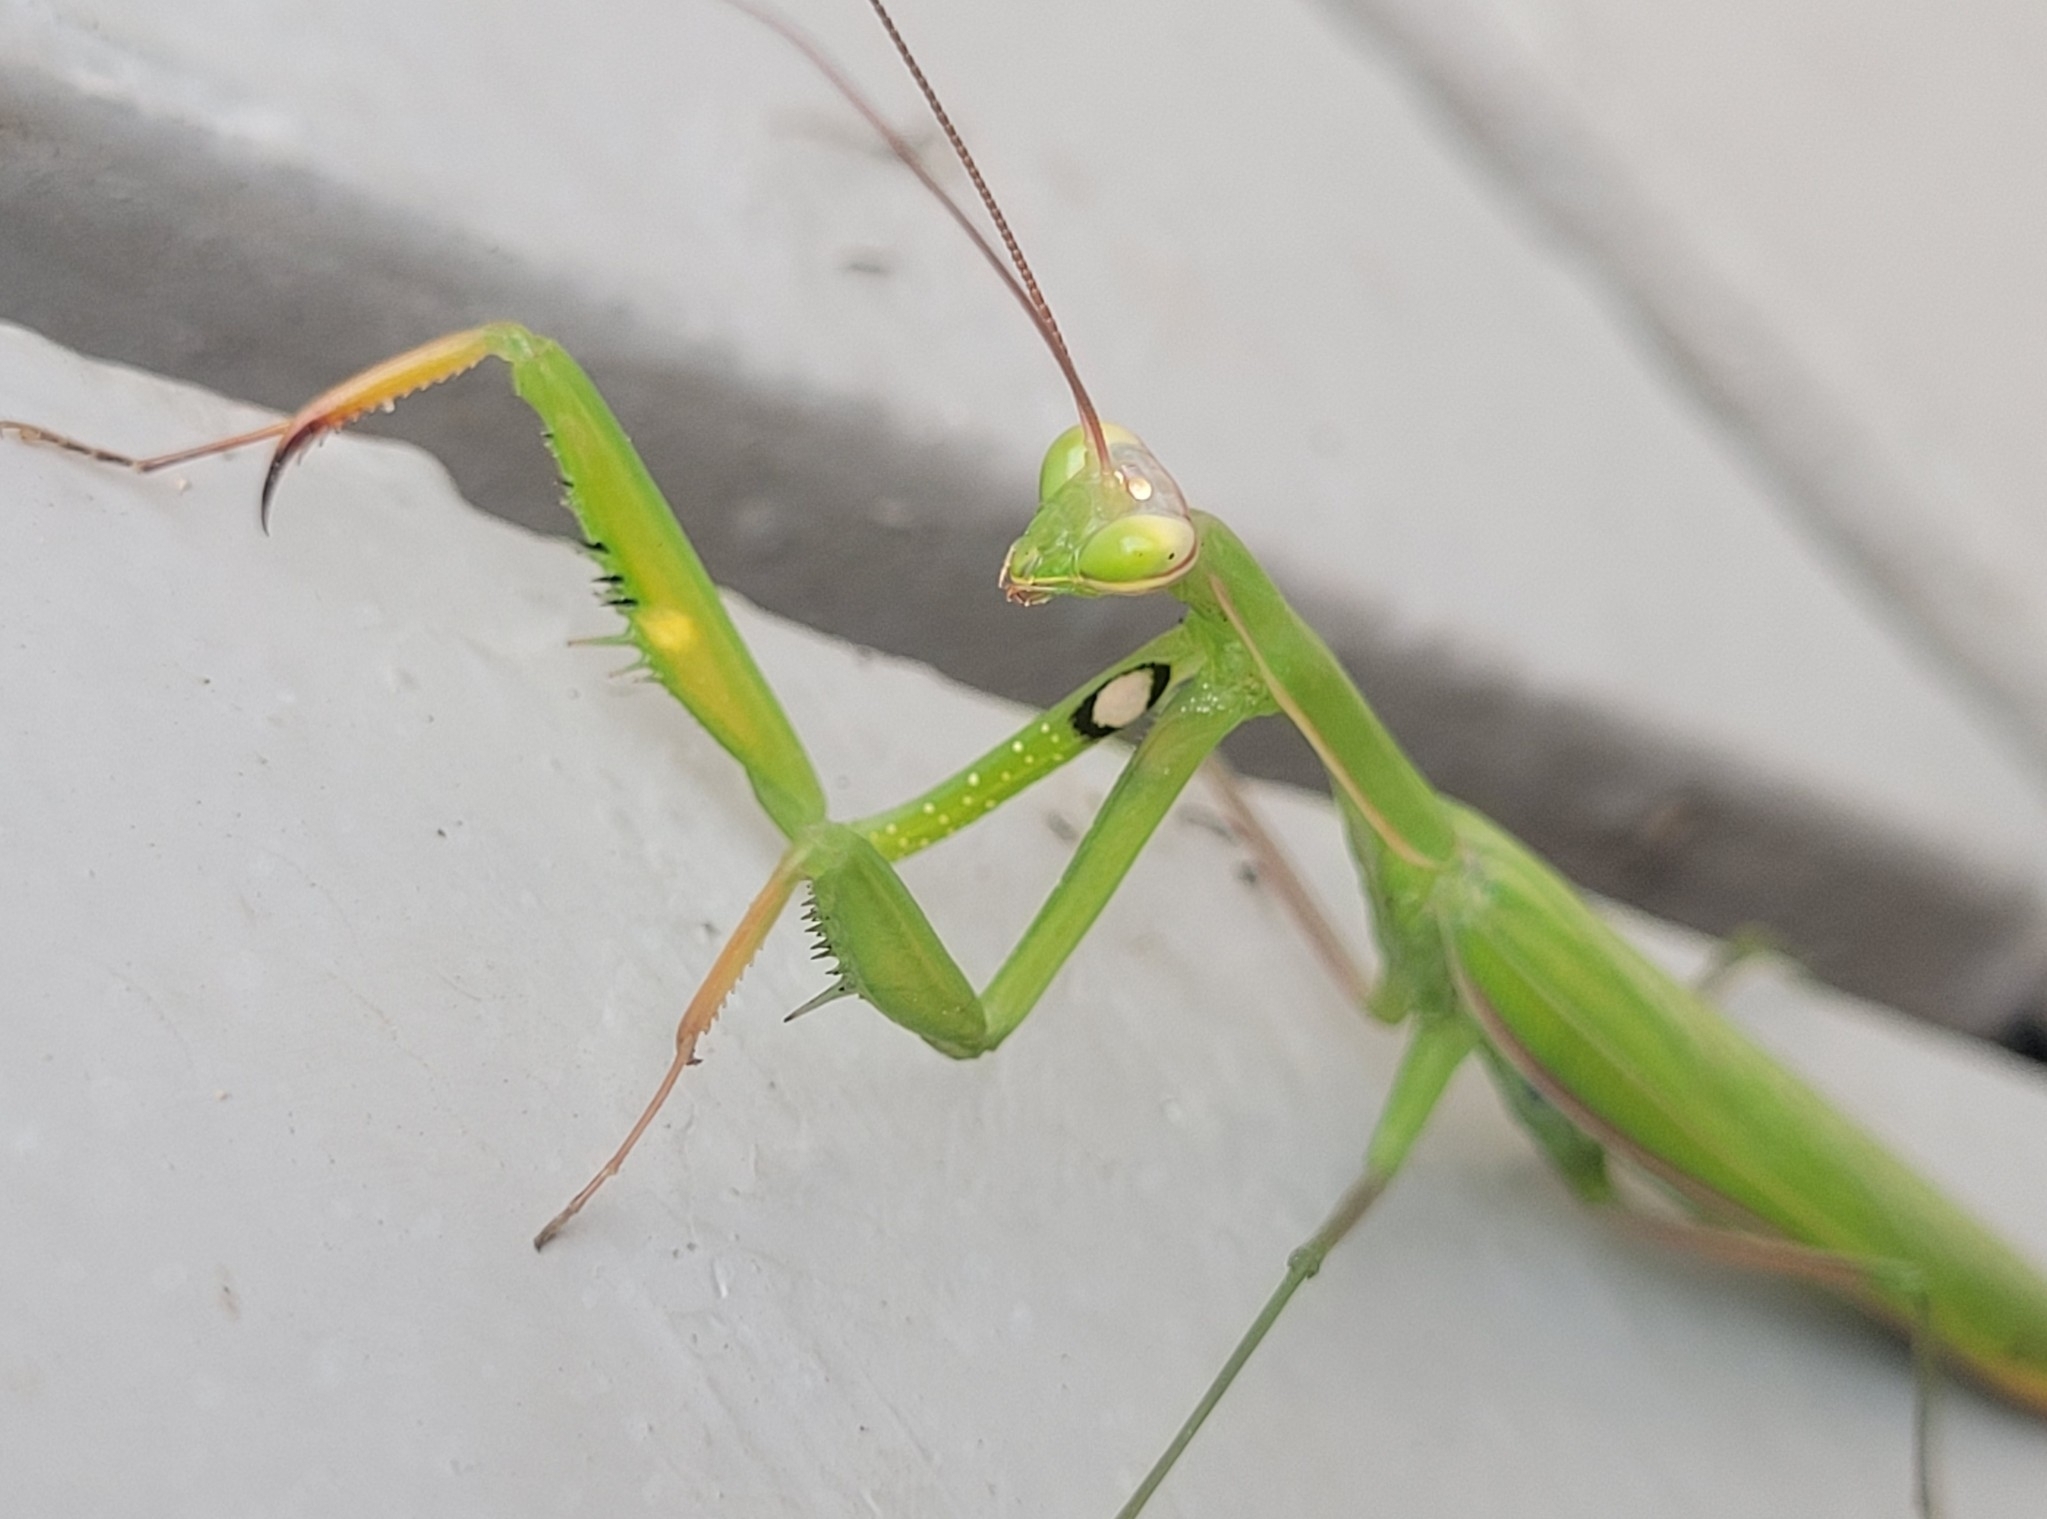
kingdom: Animalia
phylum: Arthropoda
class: Insecta
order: Mantodea
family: Mantidae
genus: Mantis
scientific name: Mantis religiosa
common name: Praying mantis
